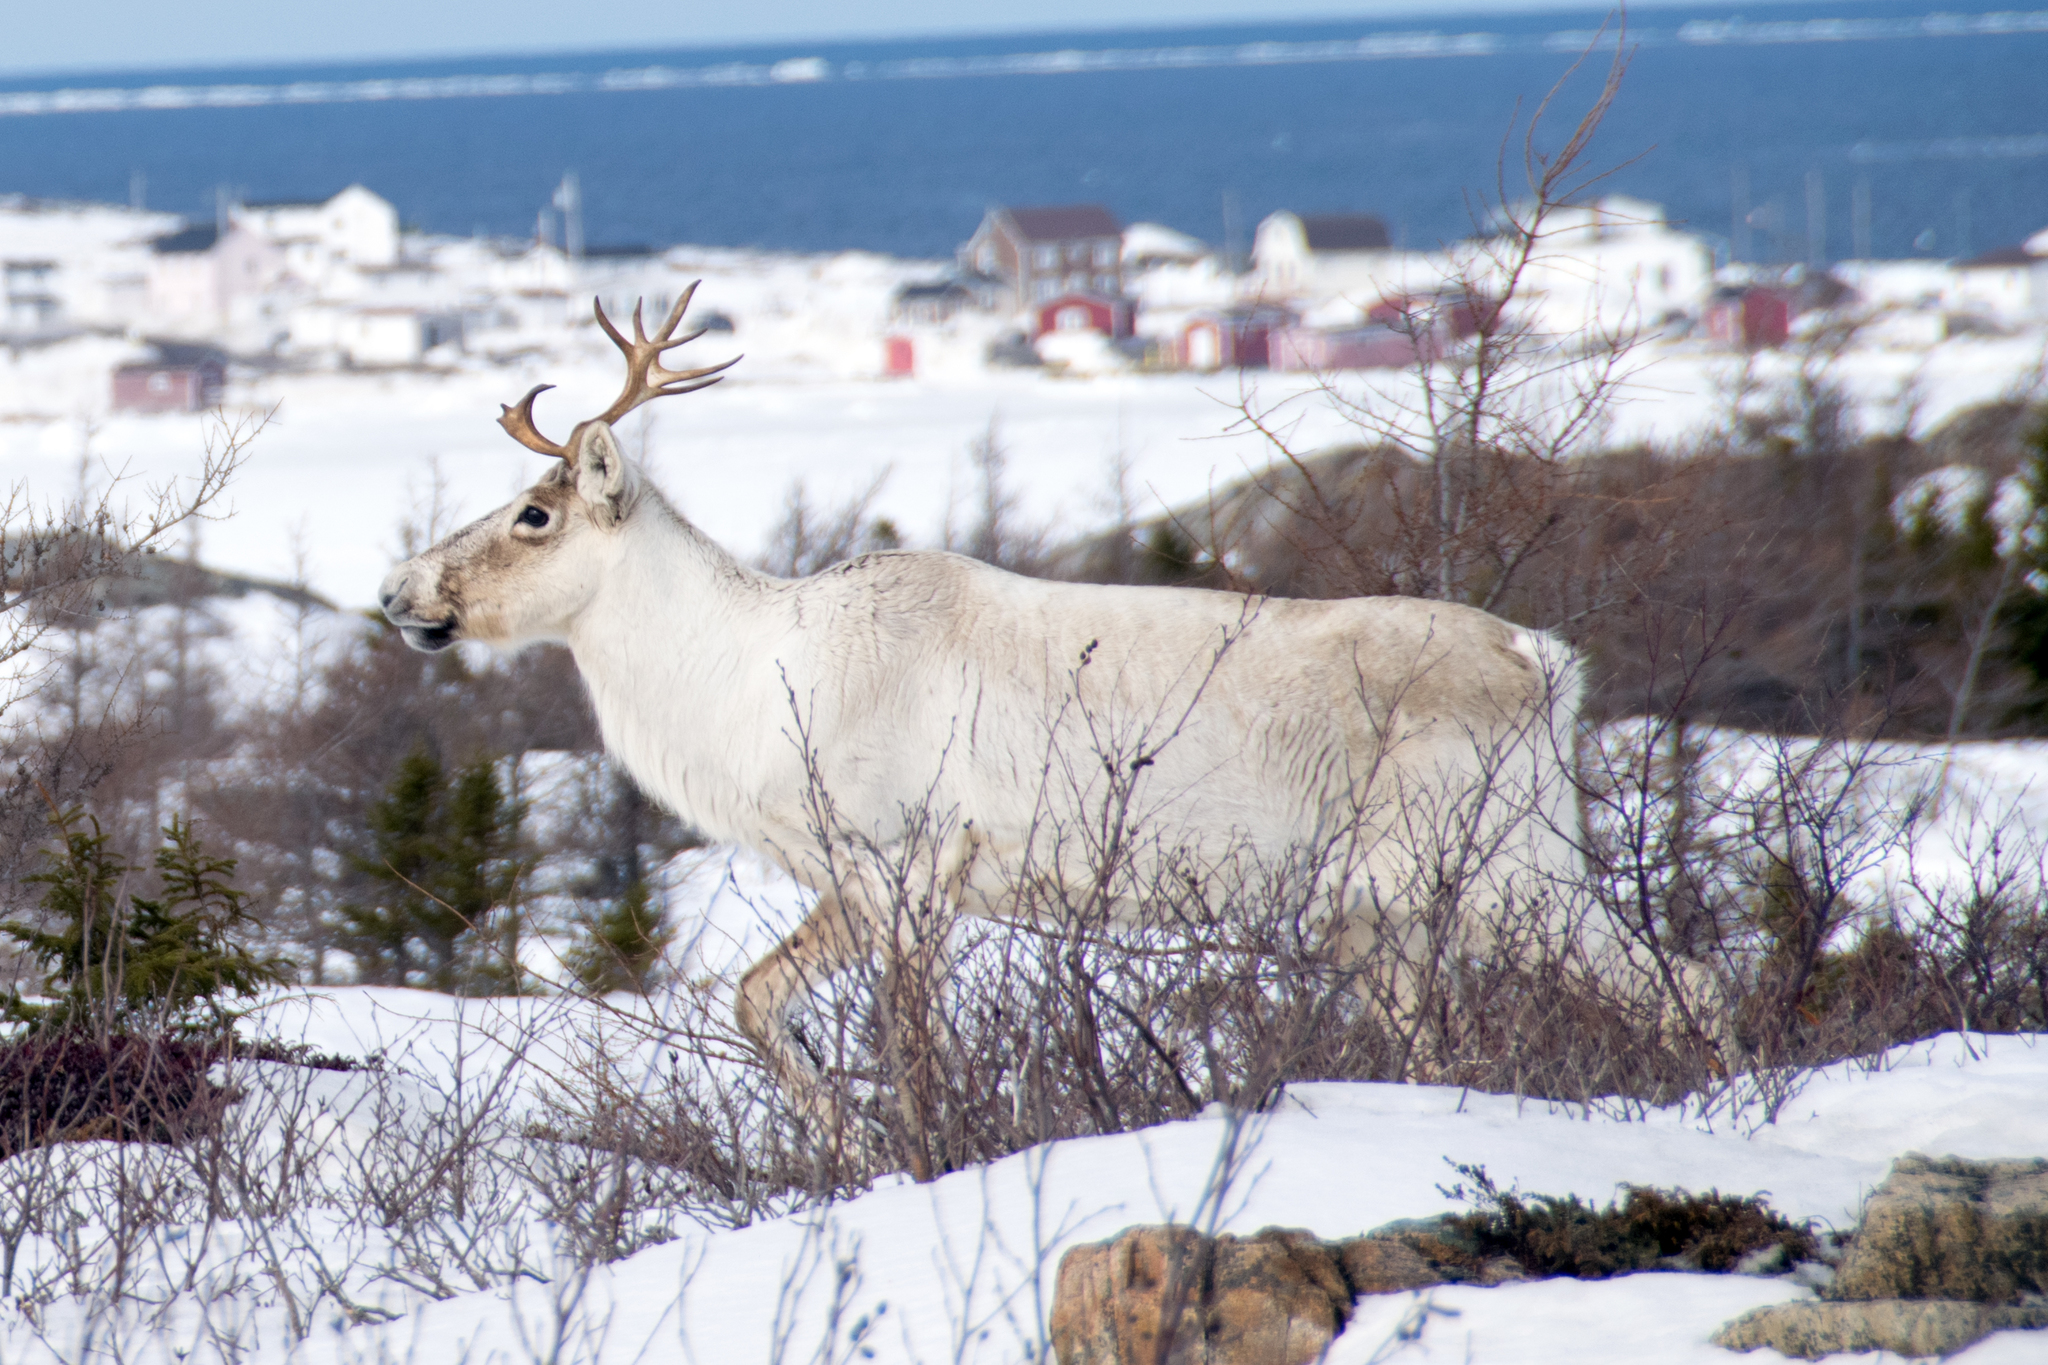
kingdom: Animalia
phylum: Chordata
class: Mammalia
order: Artiodactyla
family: Cervidae
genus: Rangifer
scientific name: Rangifer tarandus
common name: Reindeer
